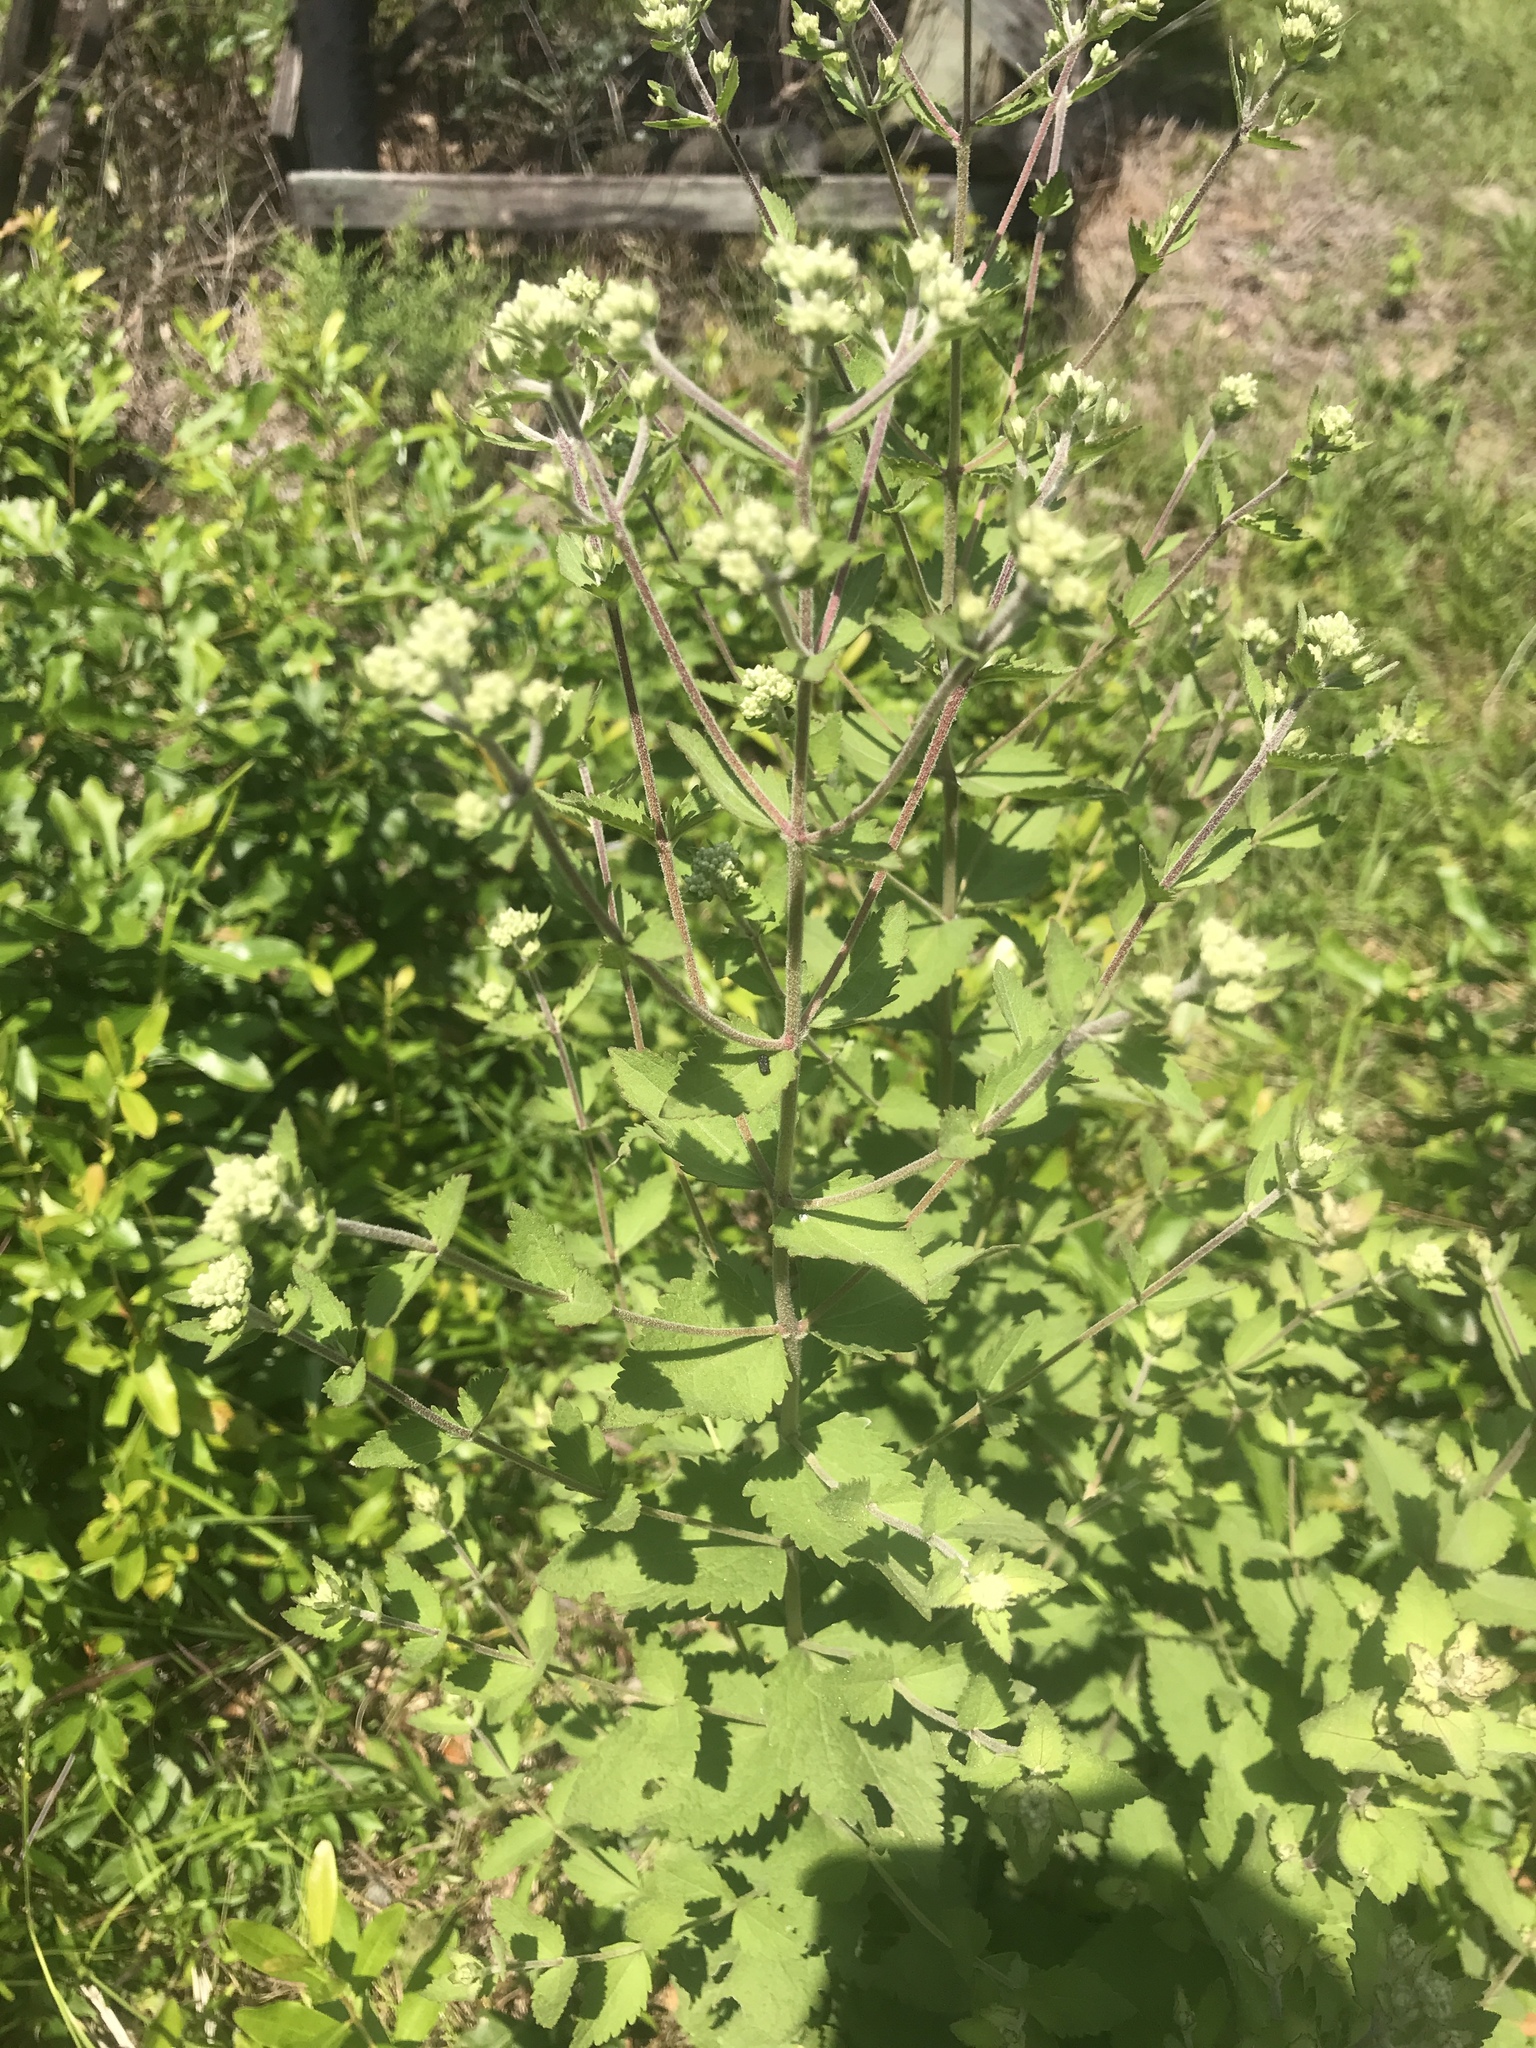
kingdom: Plantae
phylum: Tracheophyta
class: Magnoliopsida
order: Asterales
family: Asteraceae
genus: Eupatorium
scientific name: Eupatorium rotundifolium
